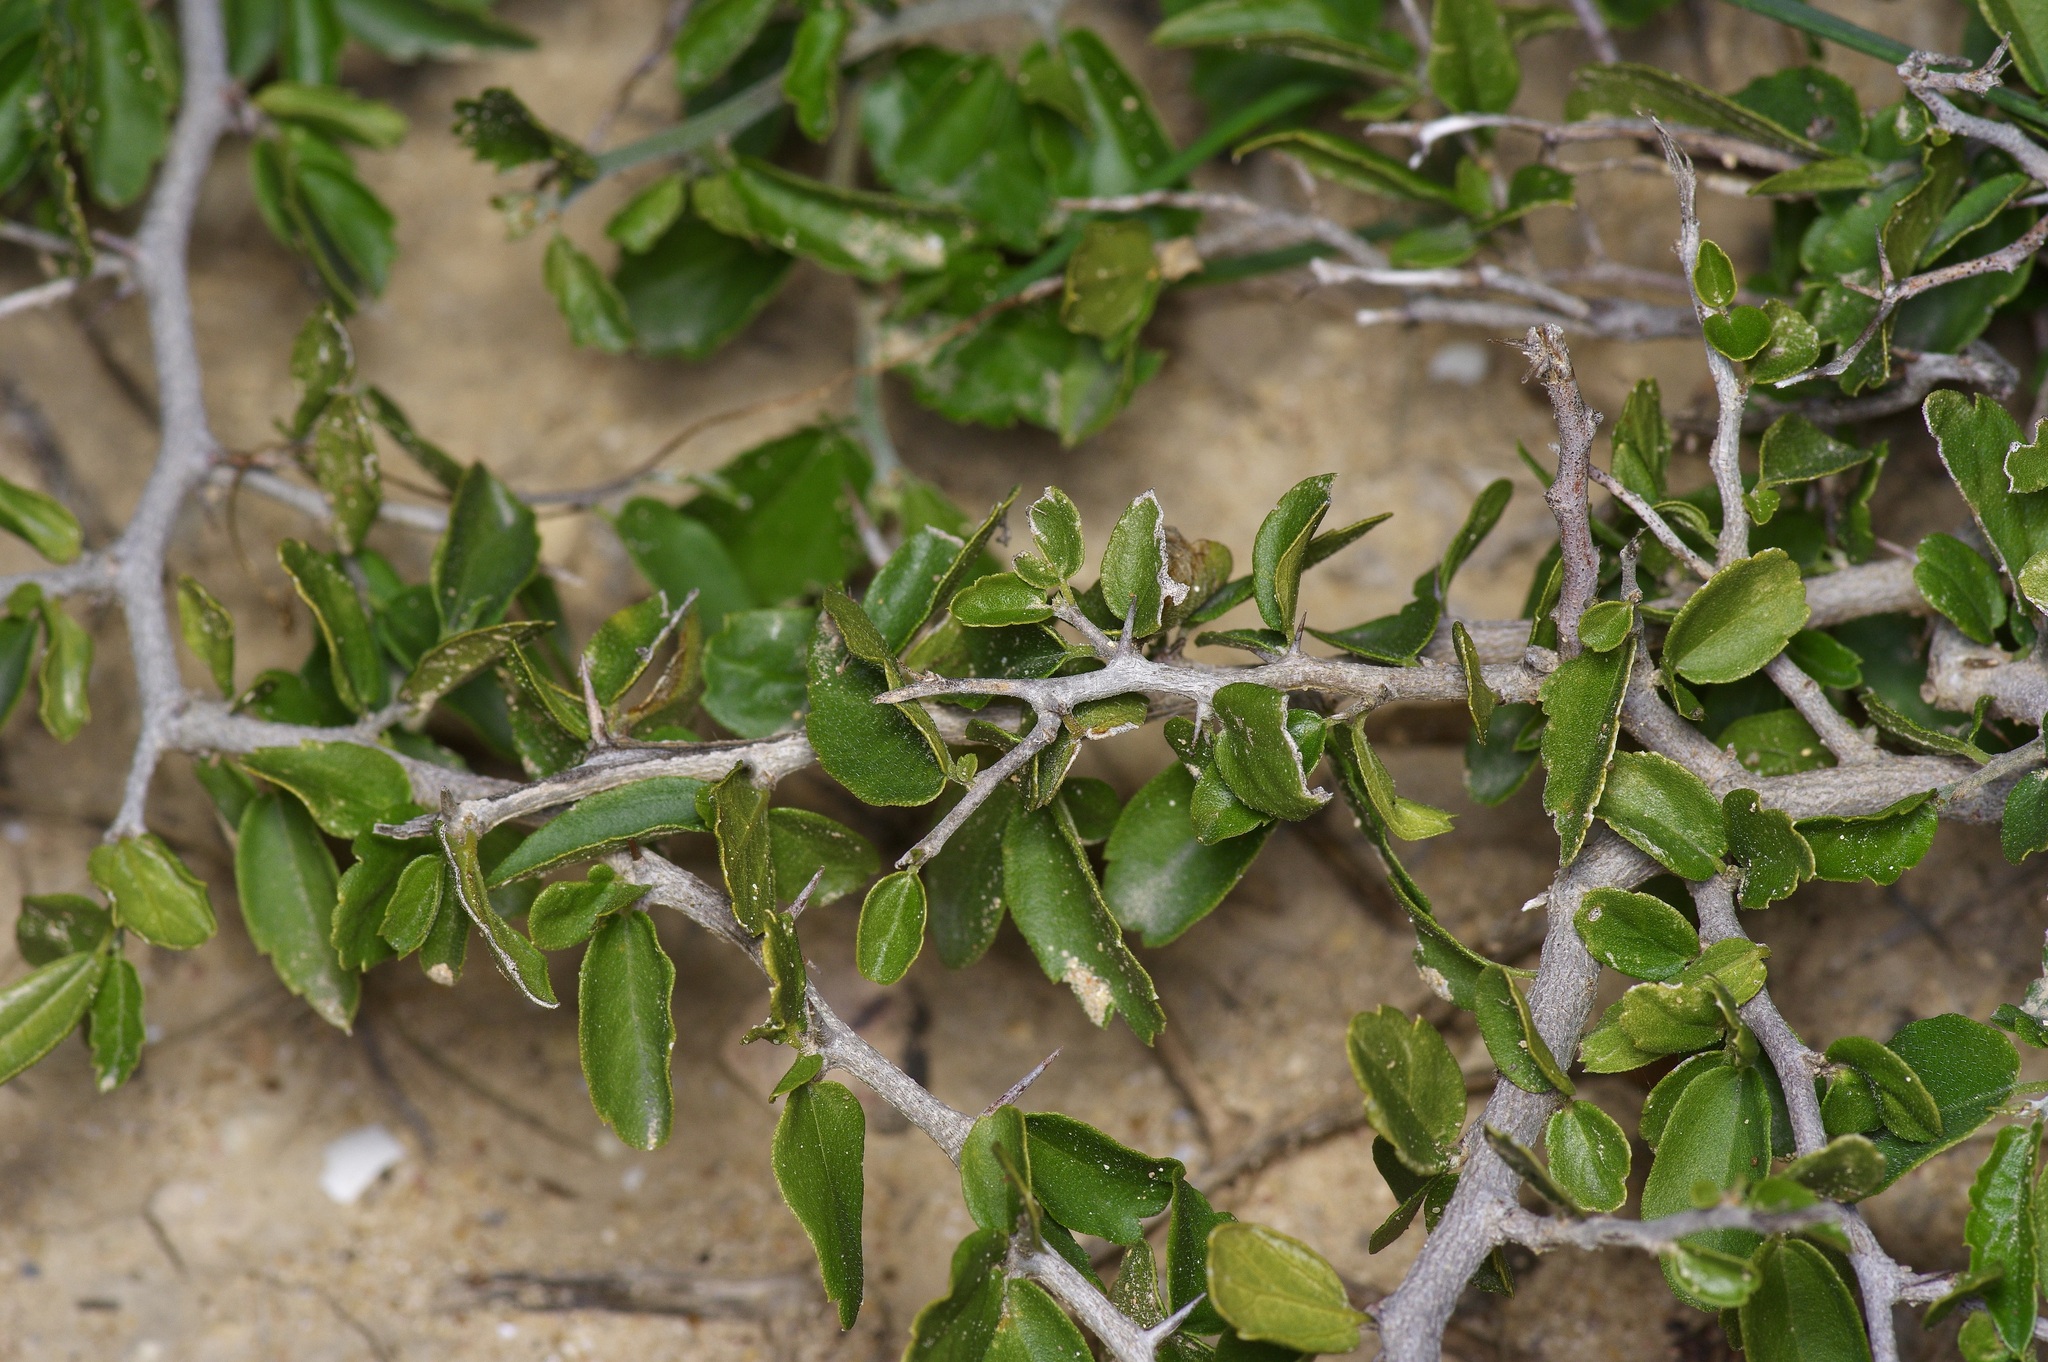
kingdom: Plantae
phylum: Tracheophyta
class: Magnoliopsida
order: Rosales
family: Cannabaceae
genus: Celtis
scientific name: Celtis pallida
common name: Desert hackberry
